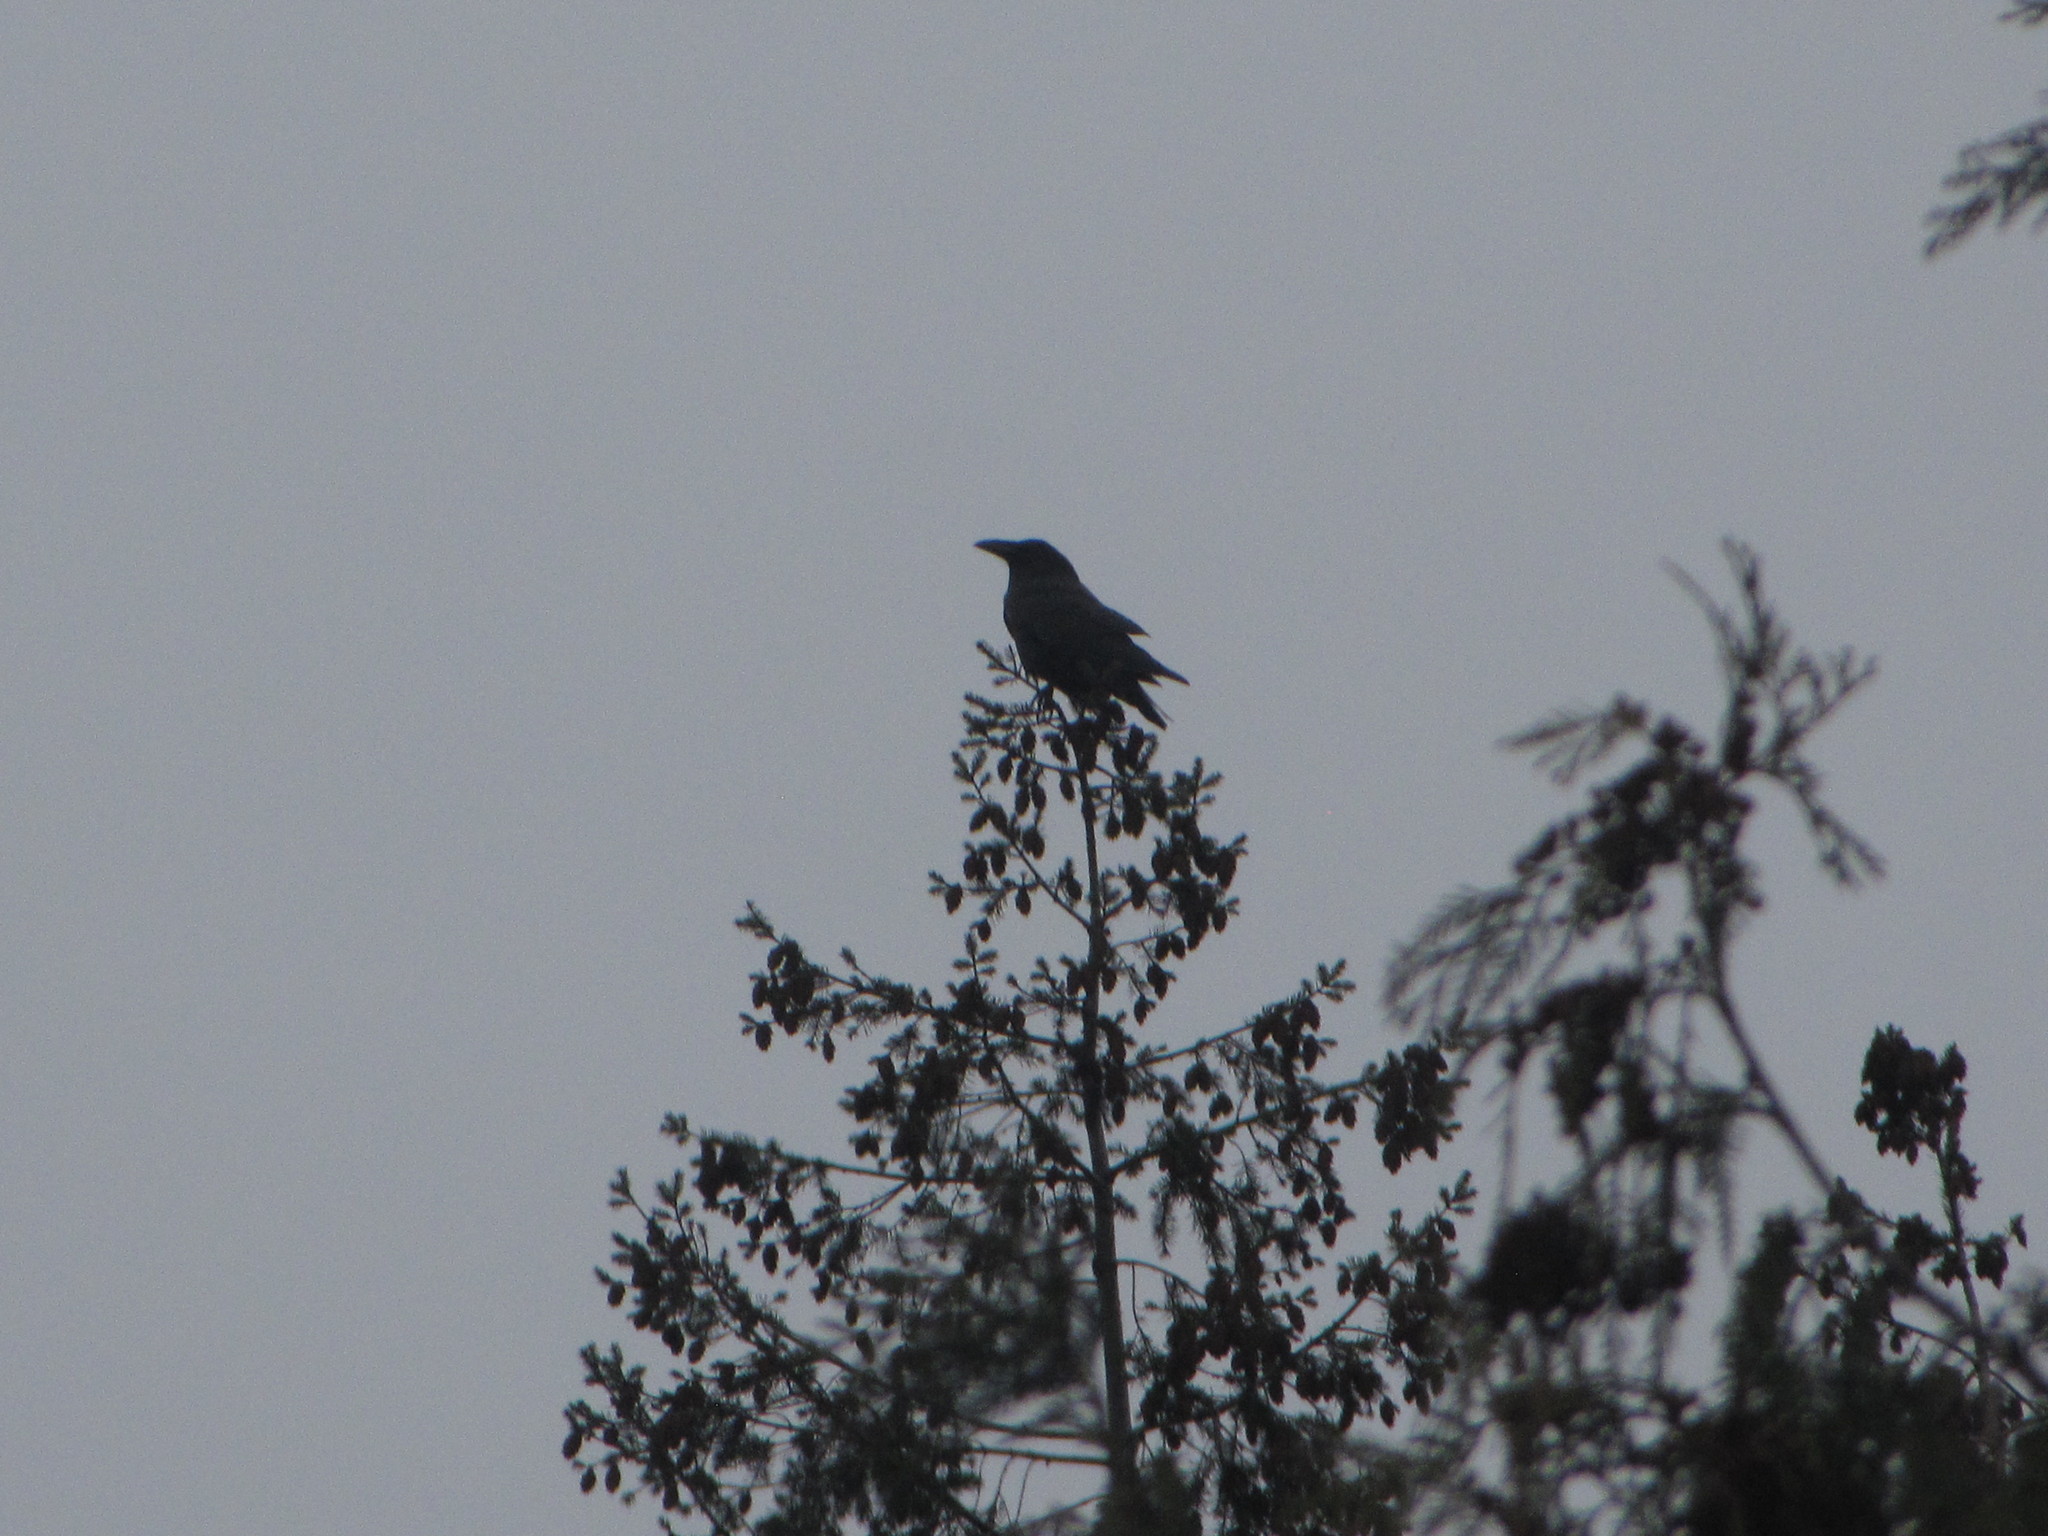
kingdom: Animalia
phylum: Chordata
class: Aves
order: Passeriformes
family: Corvidae
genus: Corvus
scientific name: Corvus corax
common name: Common raven
